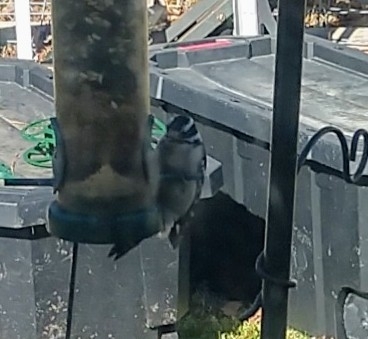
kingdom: Animalia
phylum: Chordata
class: Aves
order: Piciformes
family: Picidae
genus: Dryobates
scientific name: Dryobates pubescens
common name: Downy woodpecker
